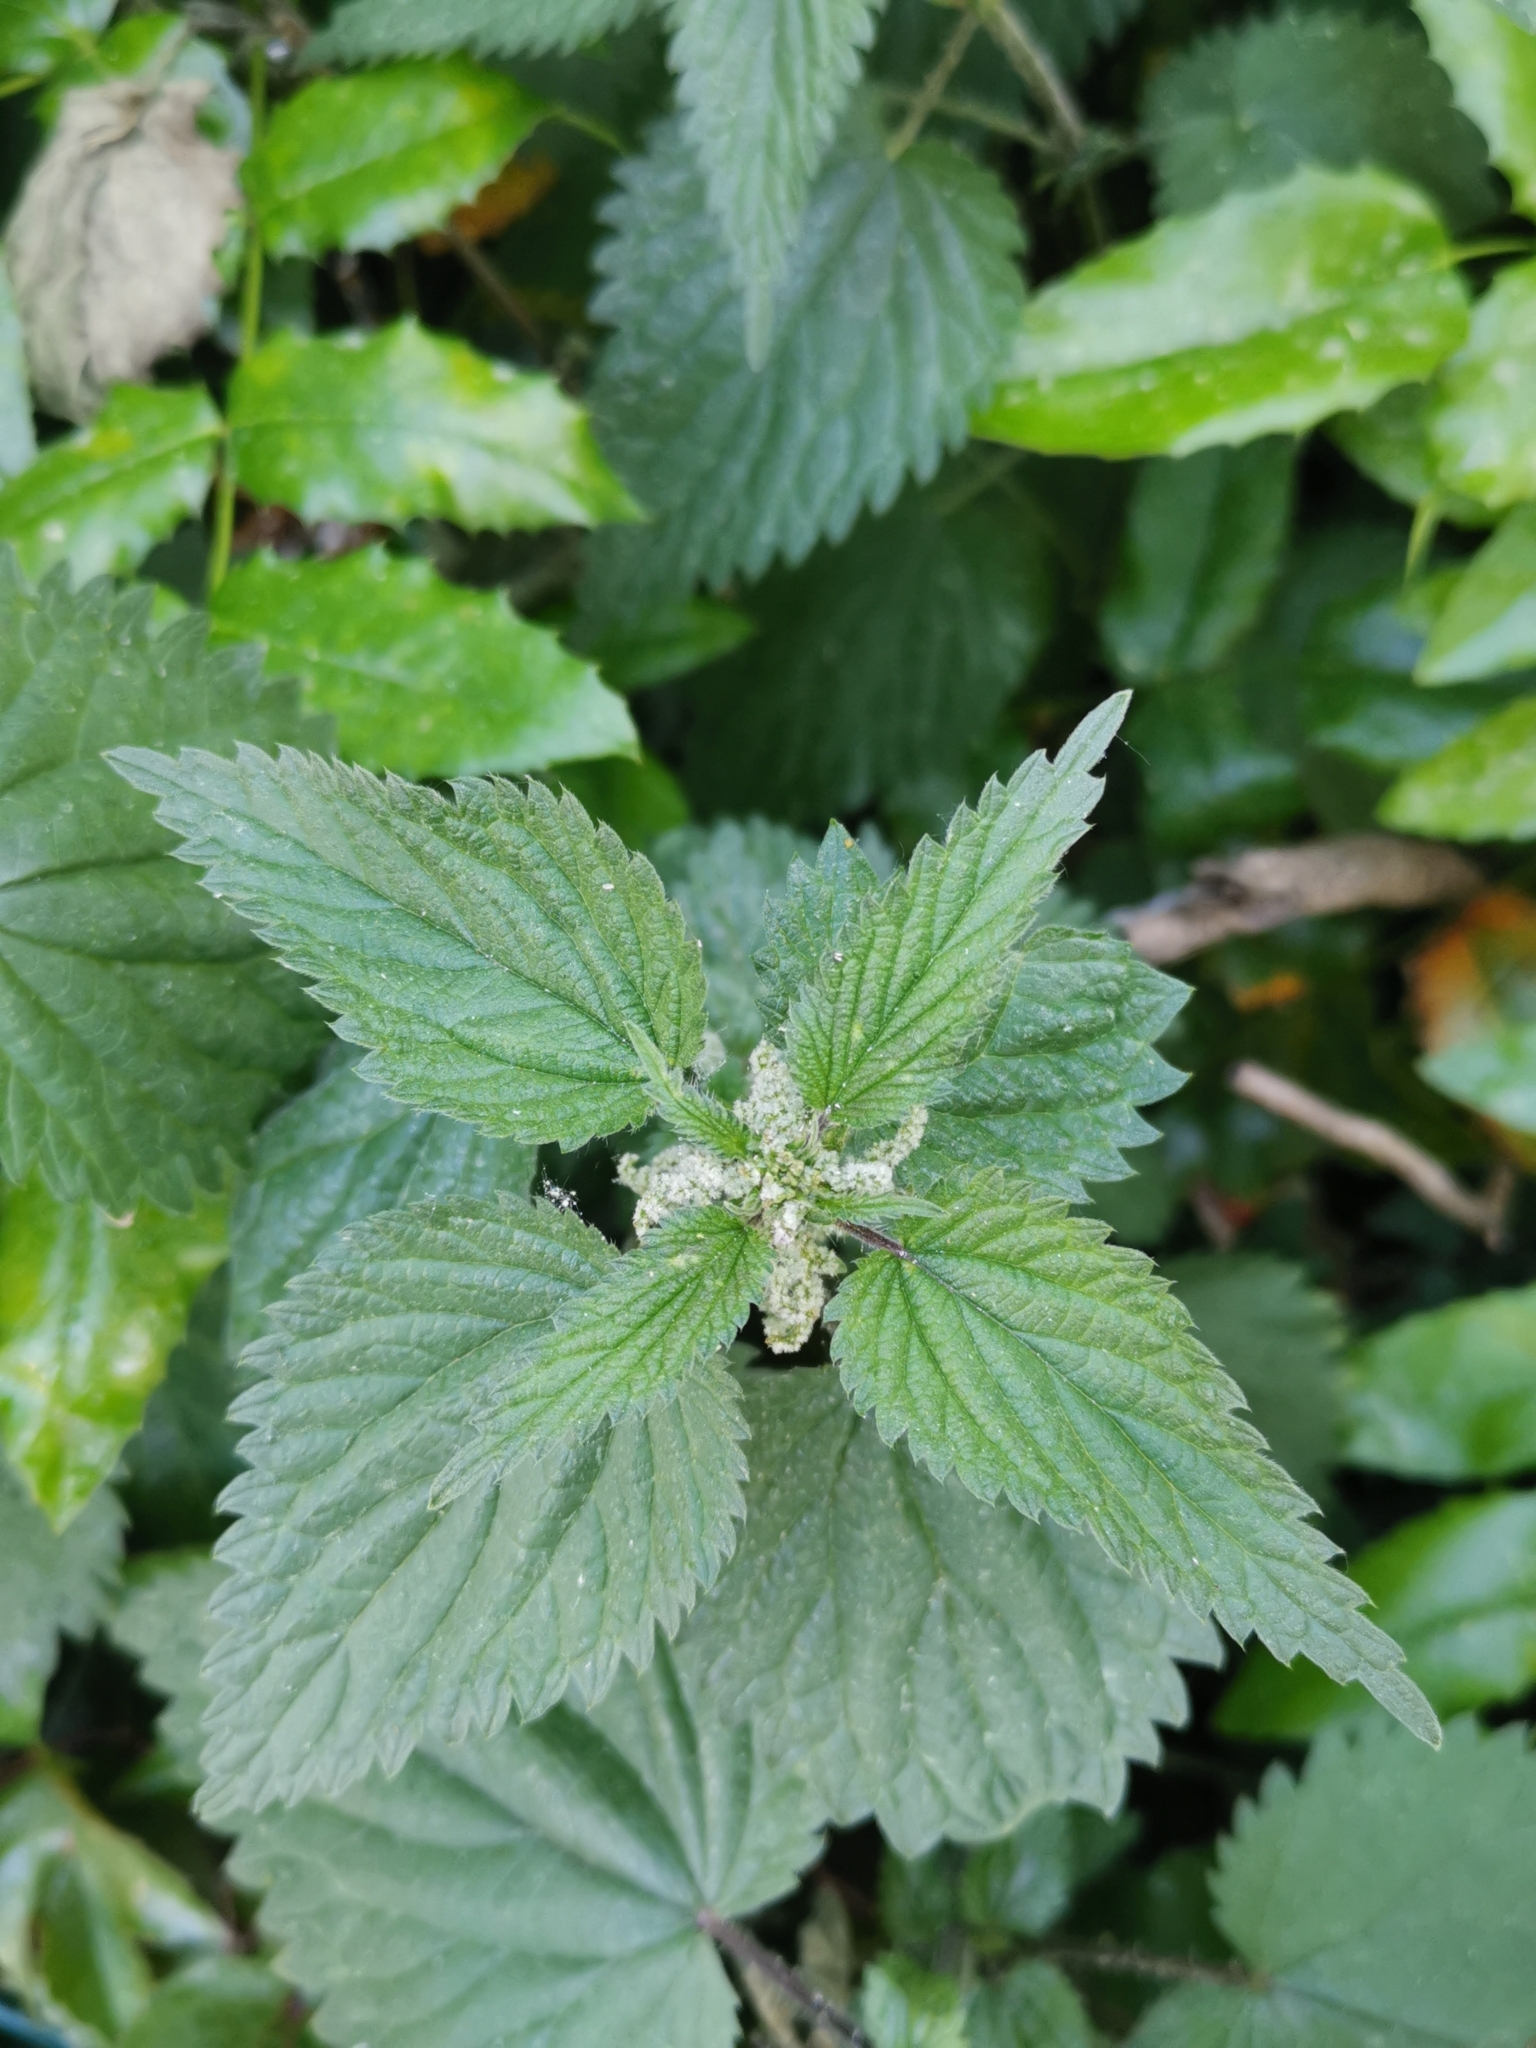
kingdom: Plantae
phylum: Tracheophyta
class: Magnoliopsida
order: Rosales
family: Urticaceae
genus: Urtica
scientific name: Urtica dioica
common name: Common nettle
